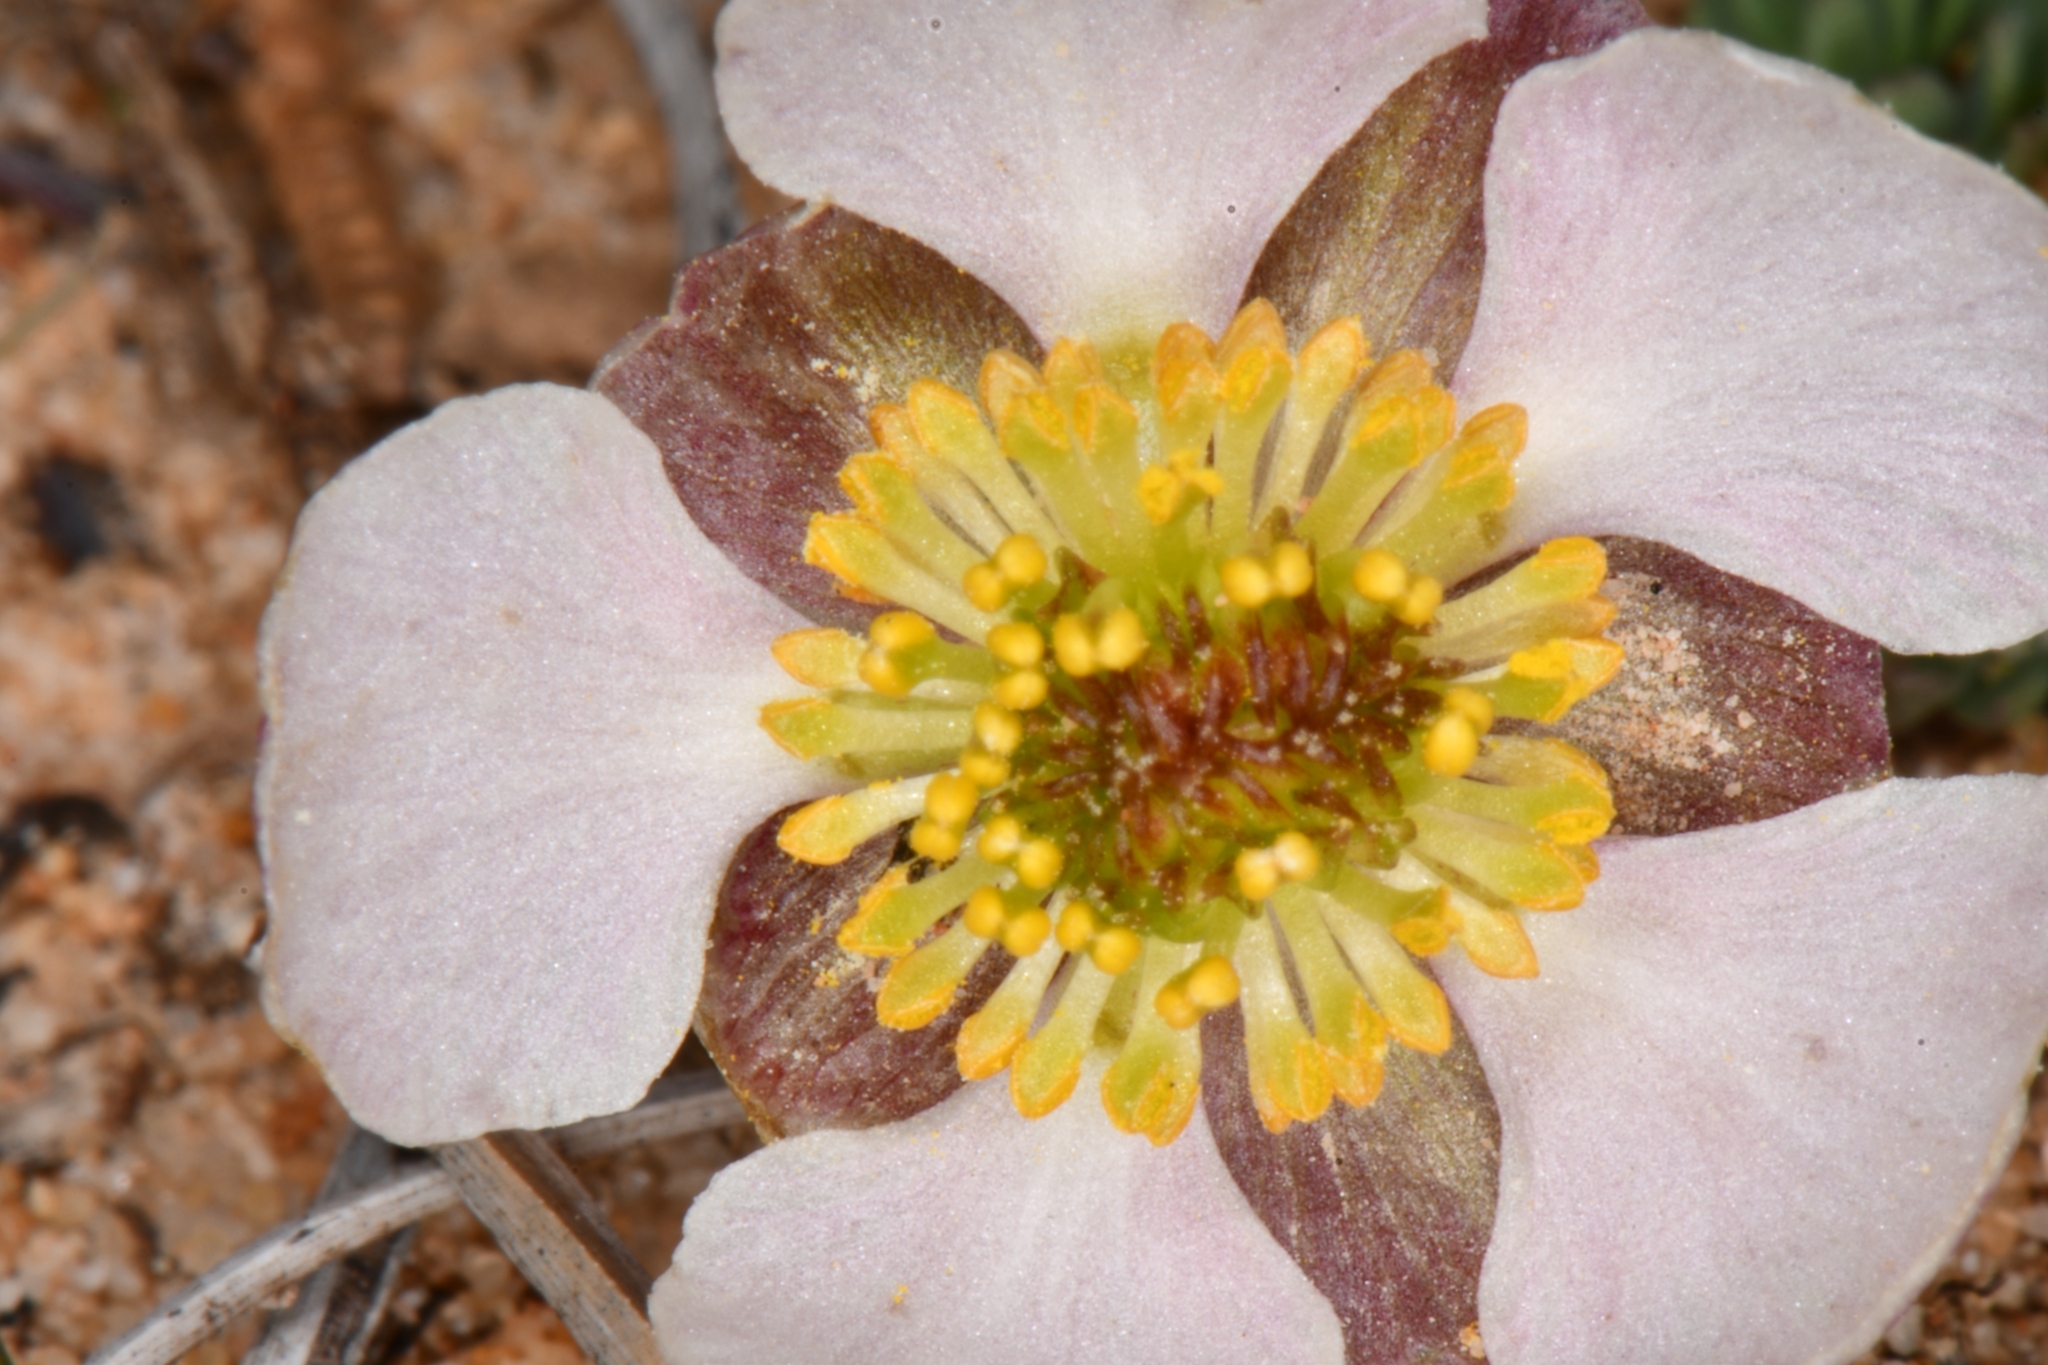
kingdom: Plantae
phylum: Tracheophyta
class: Magnoliopsida
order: Ranunculales
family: Ranunculaceae
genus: Beckwithia
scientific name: Beckwithia andersonii
